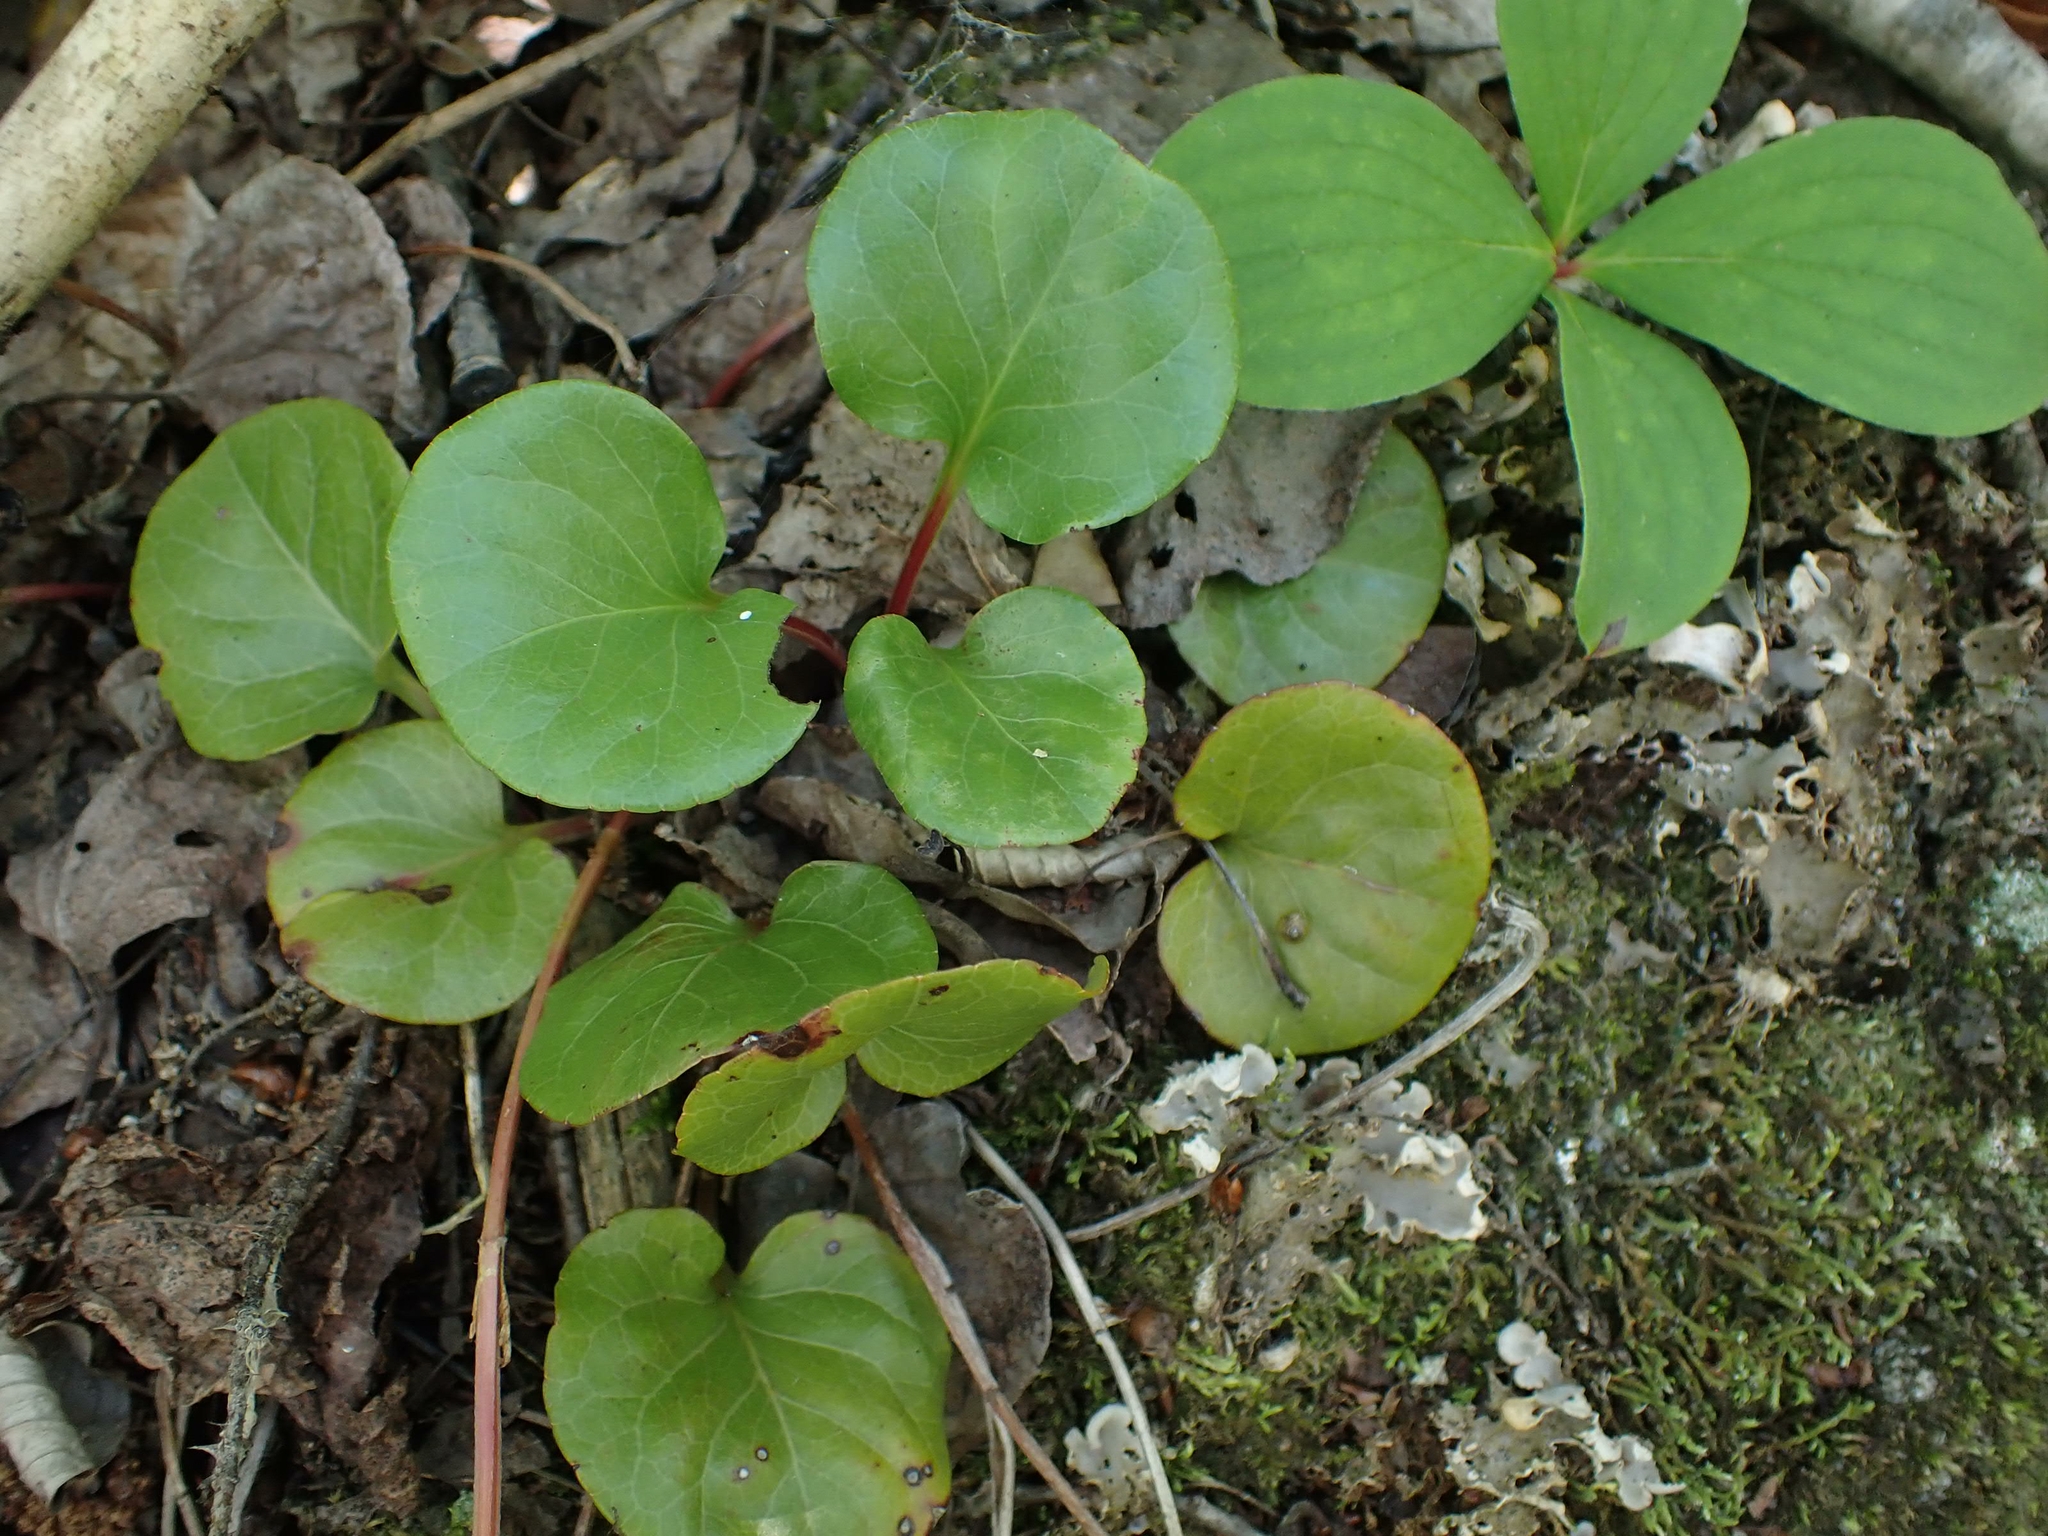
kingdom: Plantae
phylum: Tracheophyta
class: Magnoliopsida
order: Ericales
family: Ericaceae
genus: Pyrola
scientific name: Pyrola asarifolia
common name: Bog wintergreen
